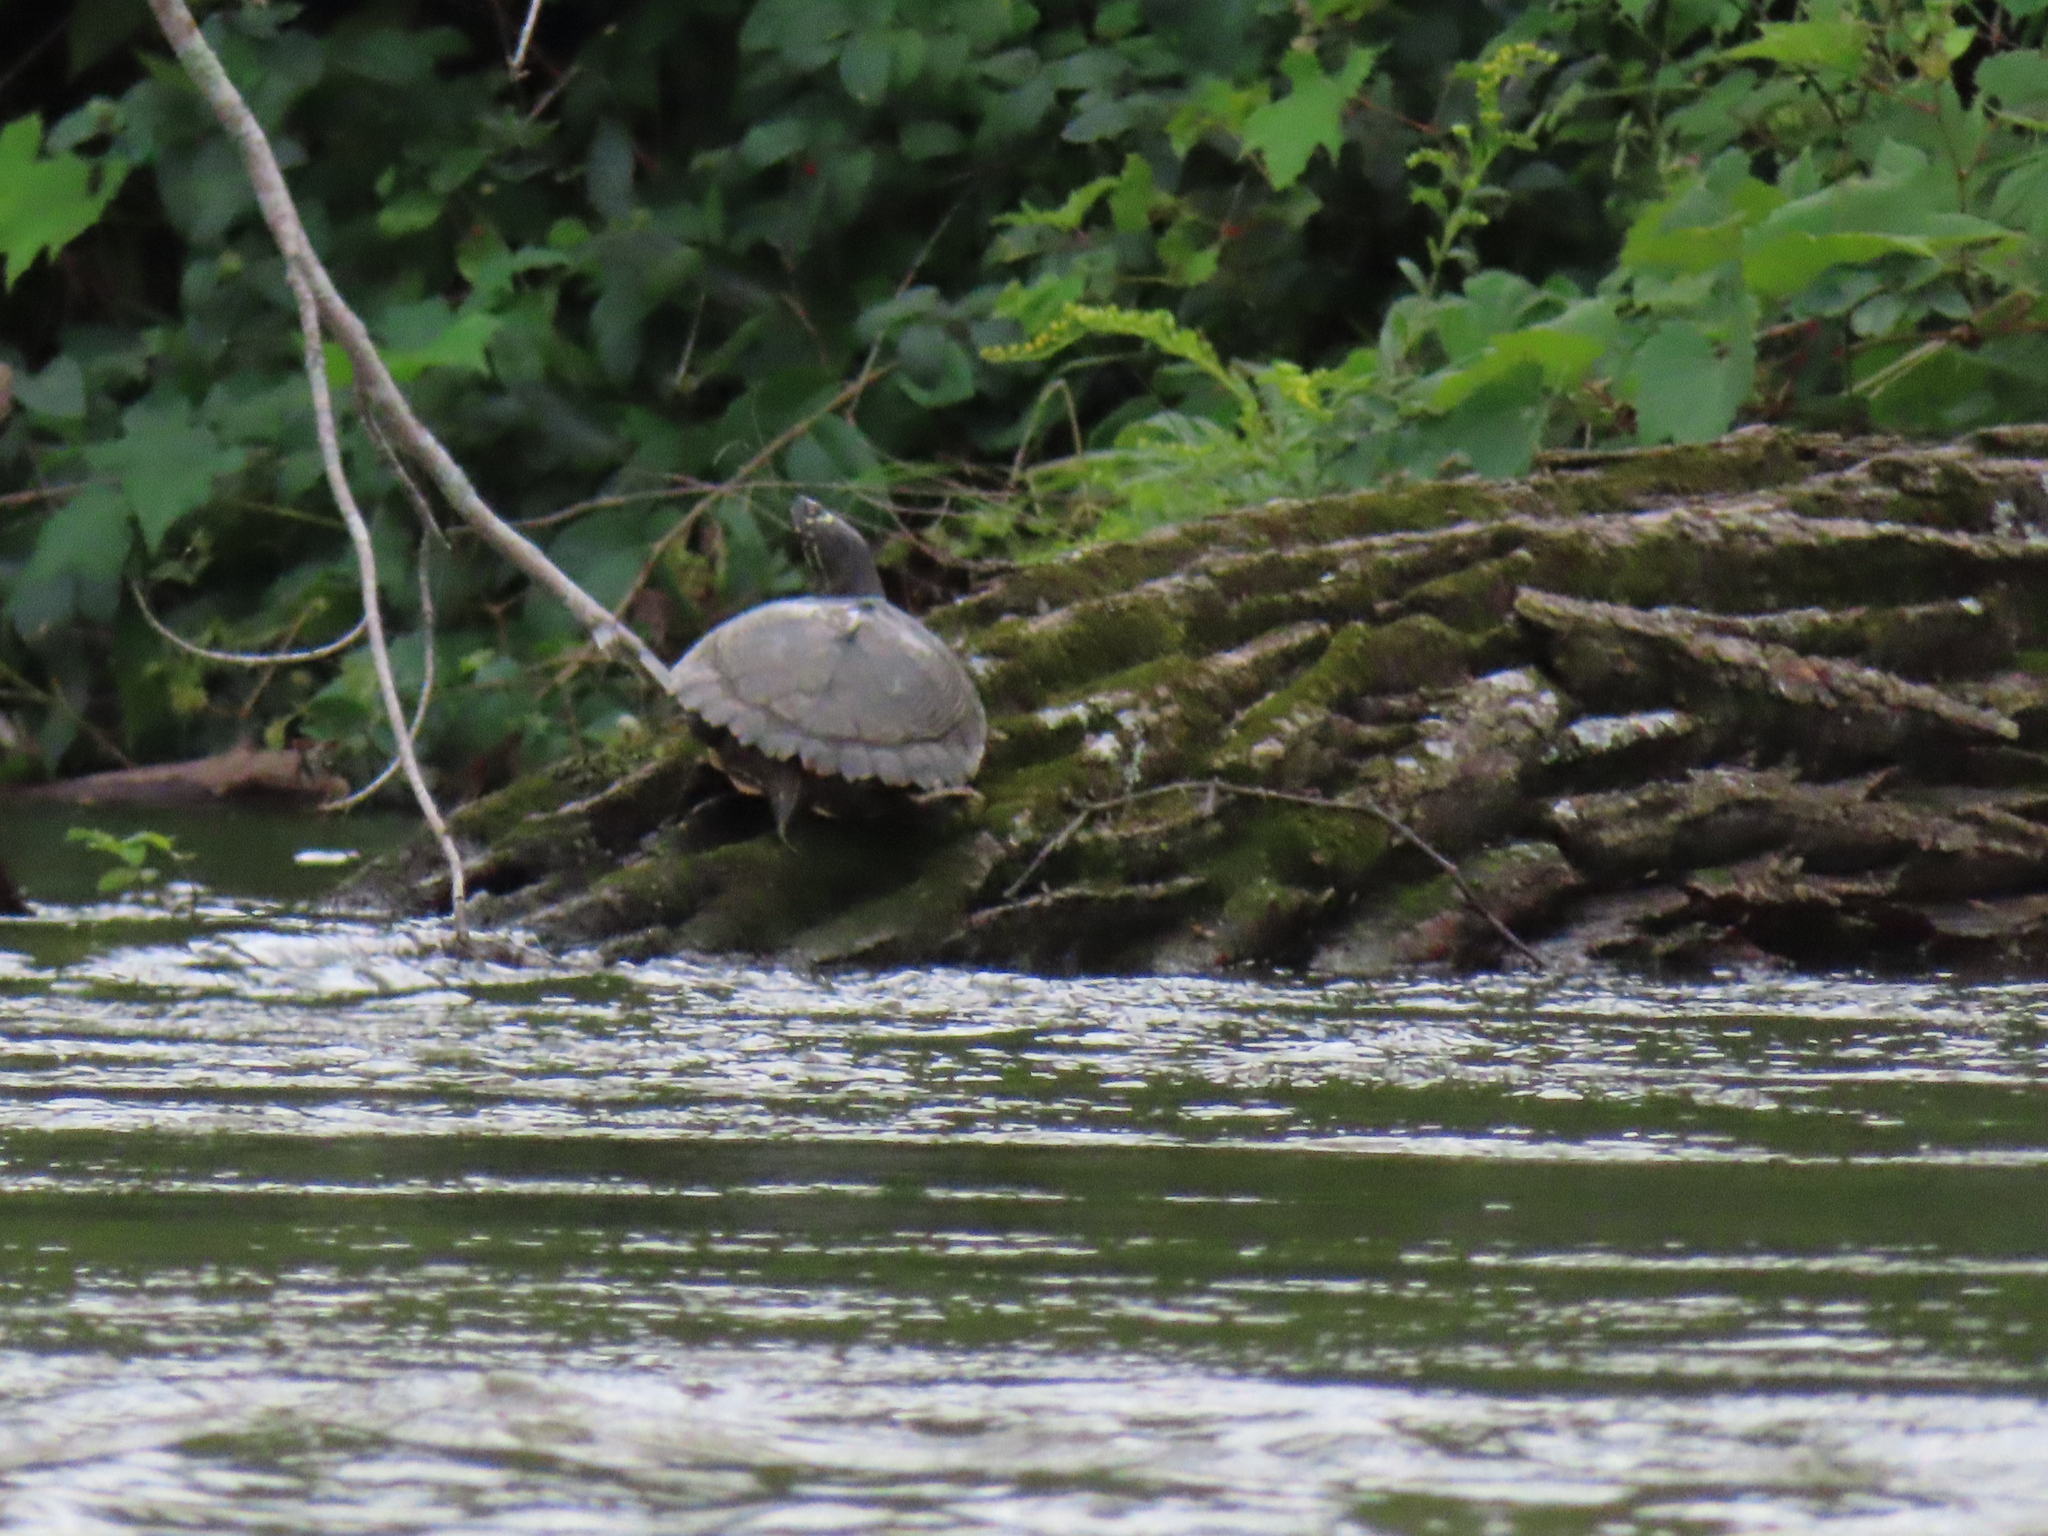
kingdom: Animalia
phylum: Chordata
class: Testudines
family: Emydidae
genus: Graptemys
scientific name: Graptemys ouachitensis
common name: Ouachita map turtle
